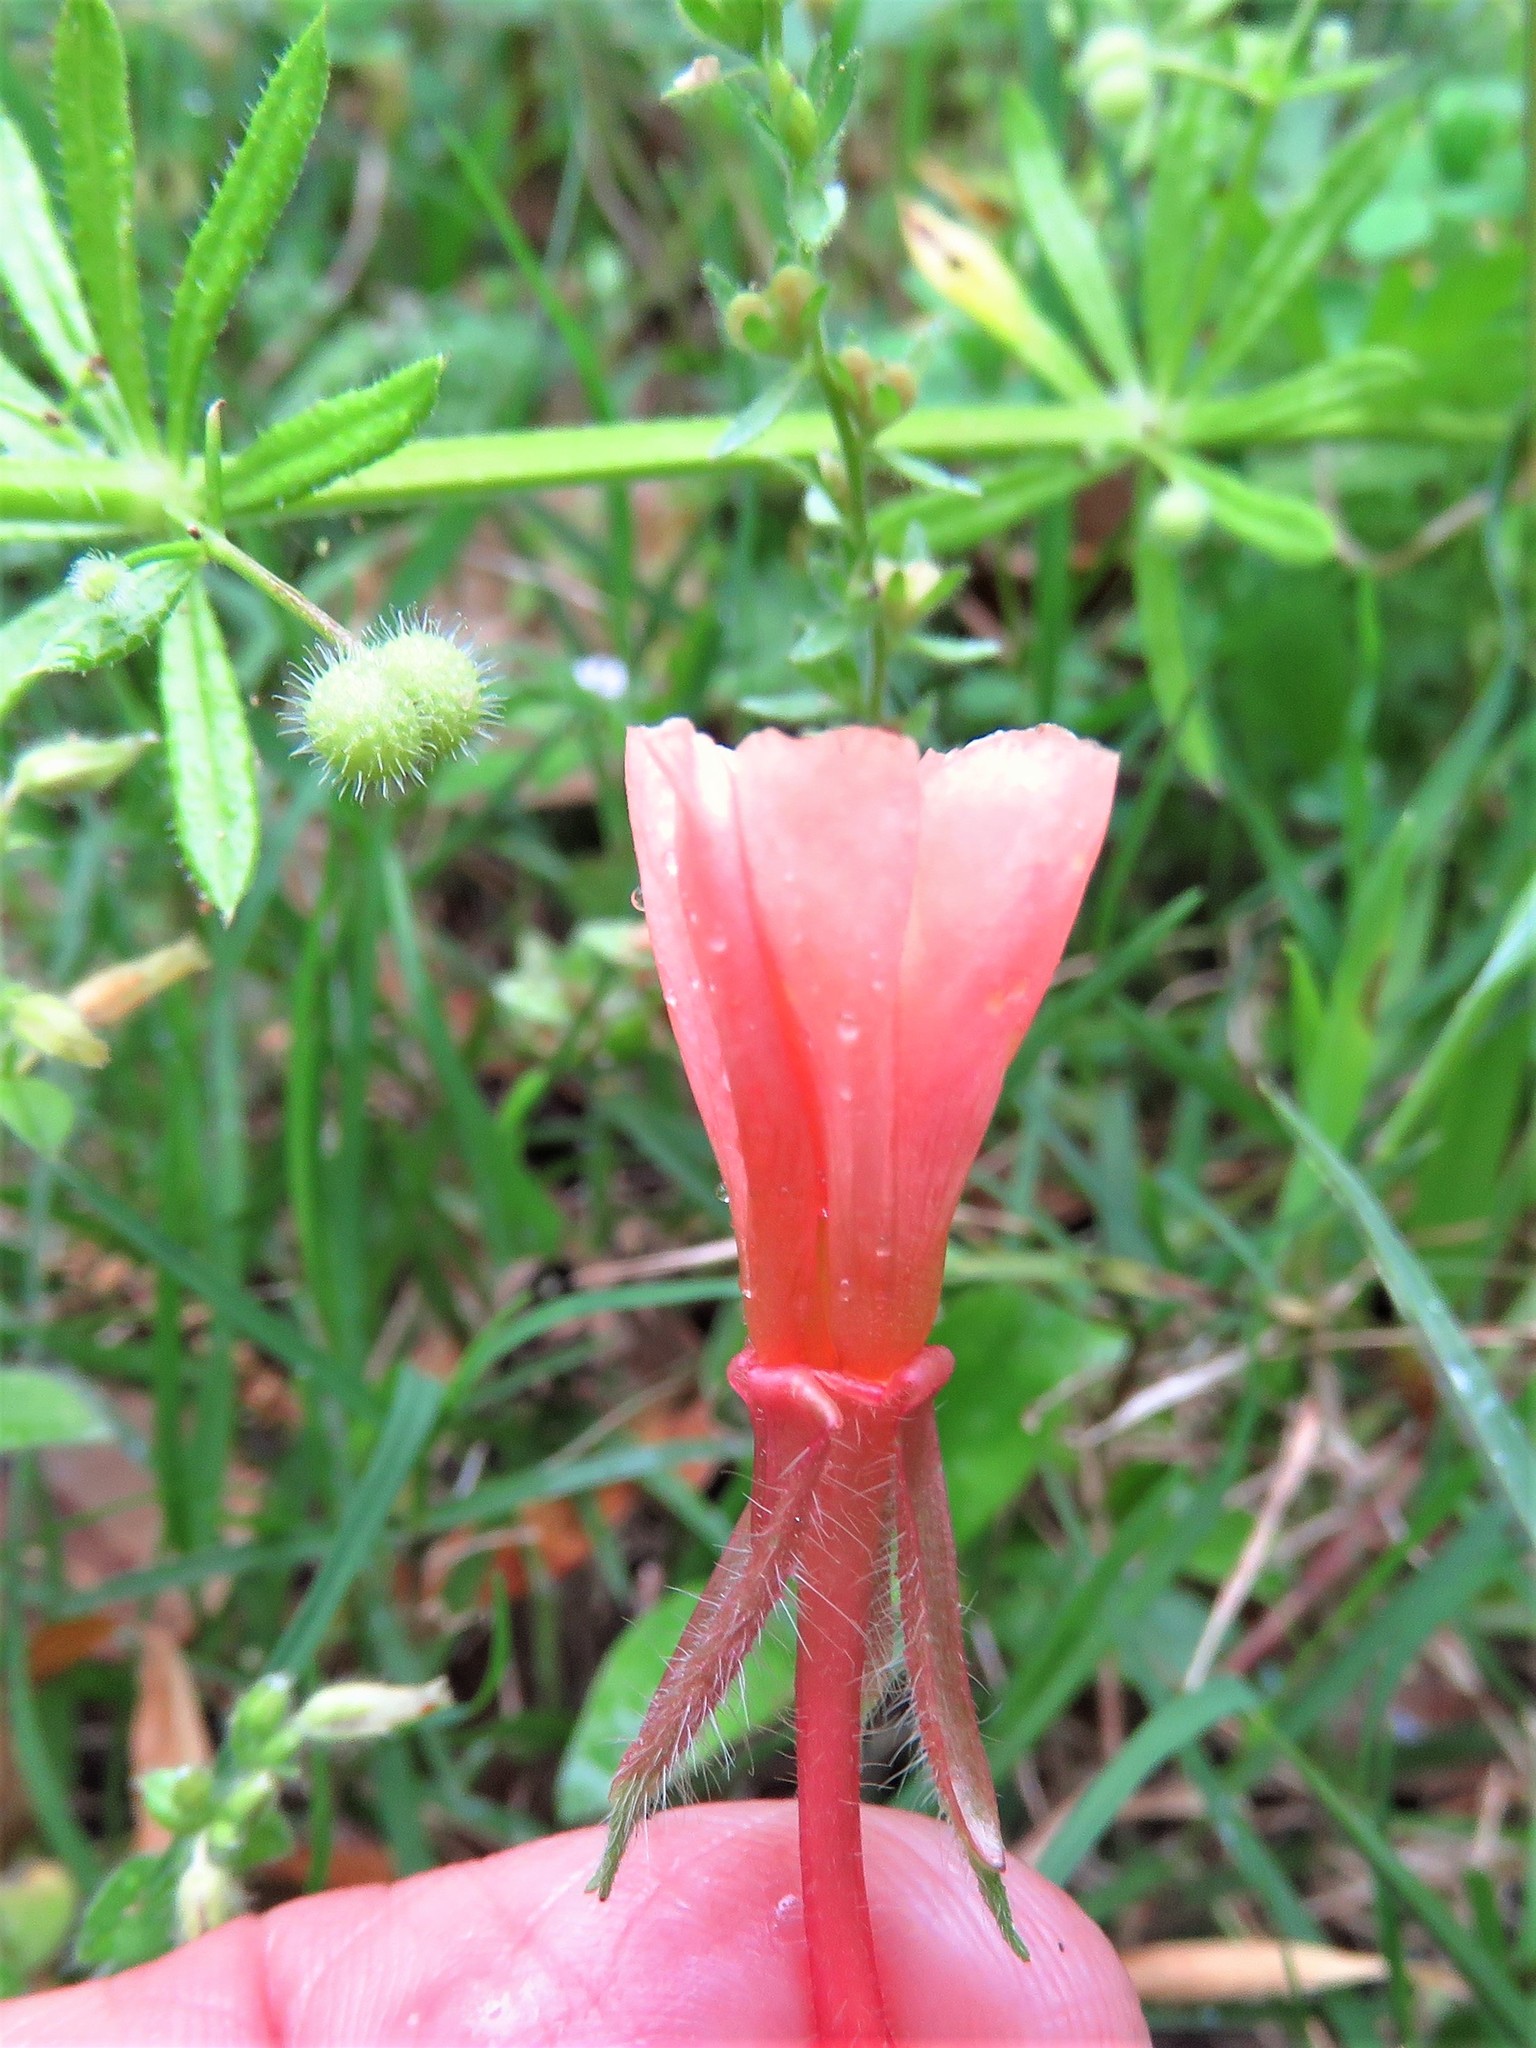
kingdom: Plantae
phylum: Tracheophyta
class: Magnoliopsida
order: Myrtales
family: Onagraceae
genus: Oenothera
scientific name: Oenothera laciniata
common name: Cut-leaved evening-primrose
